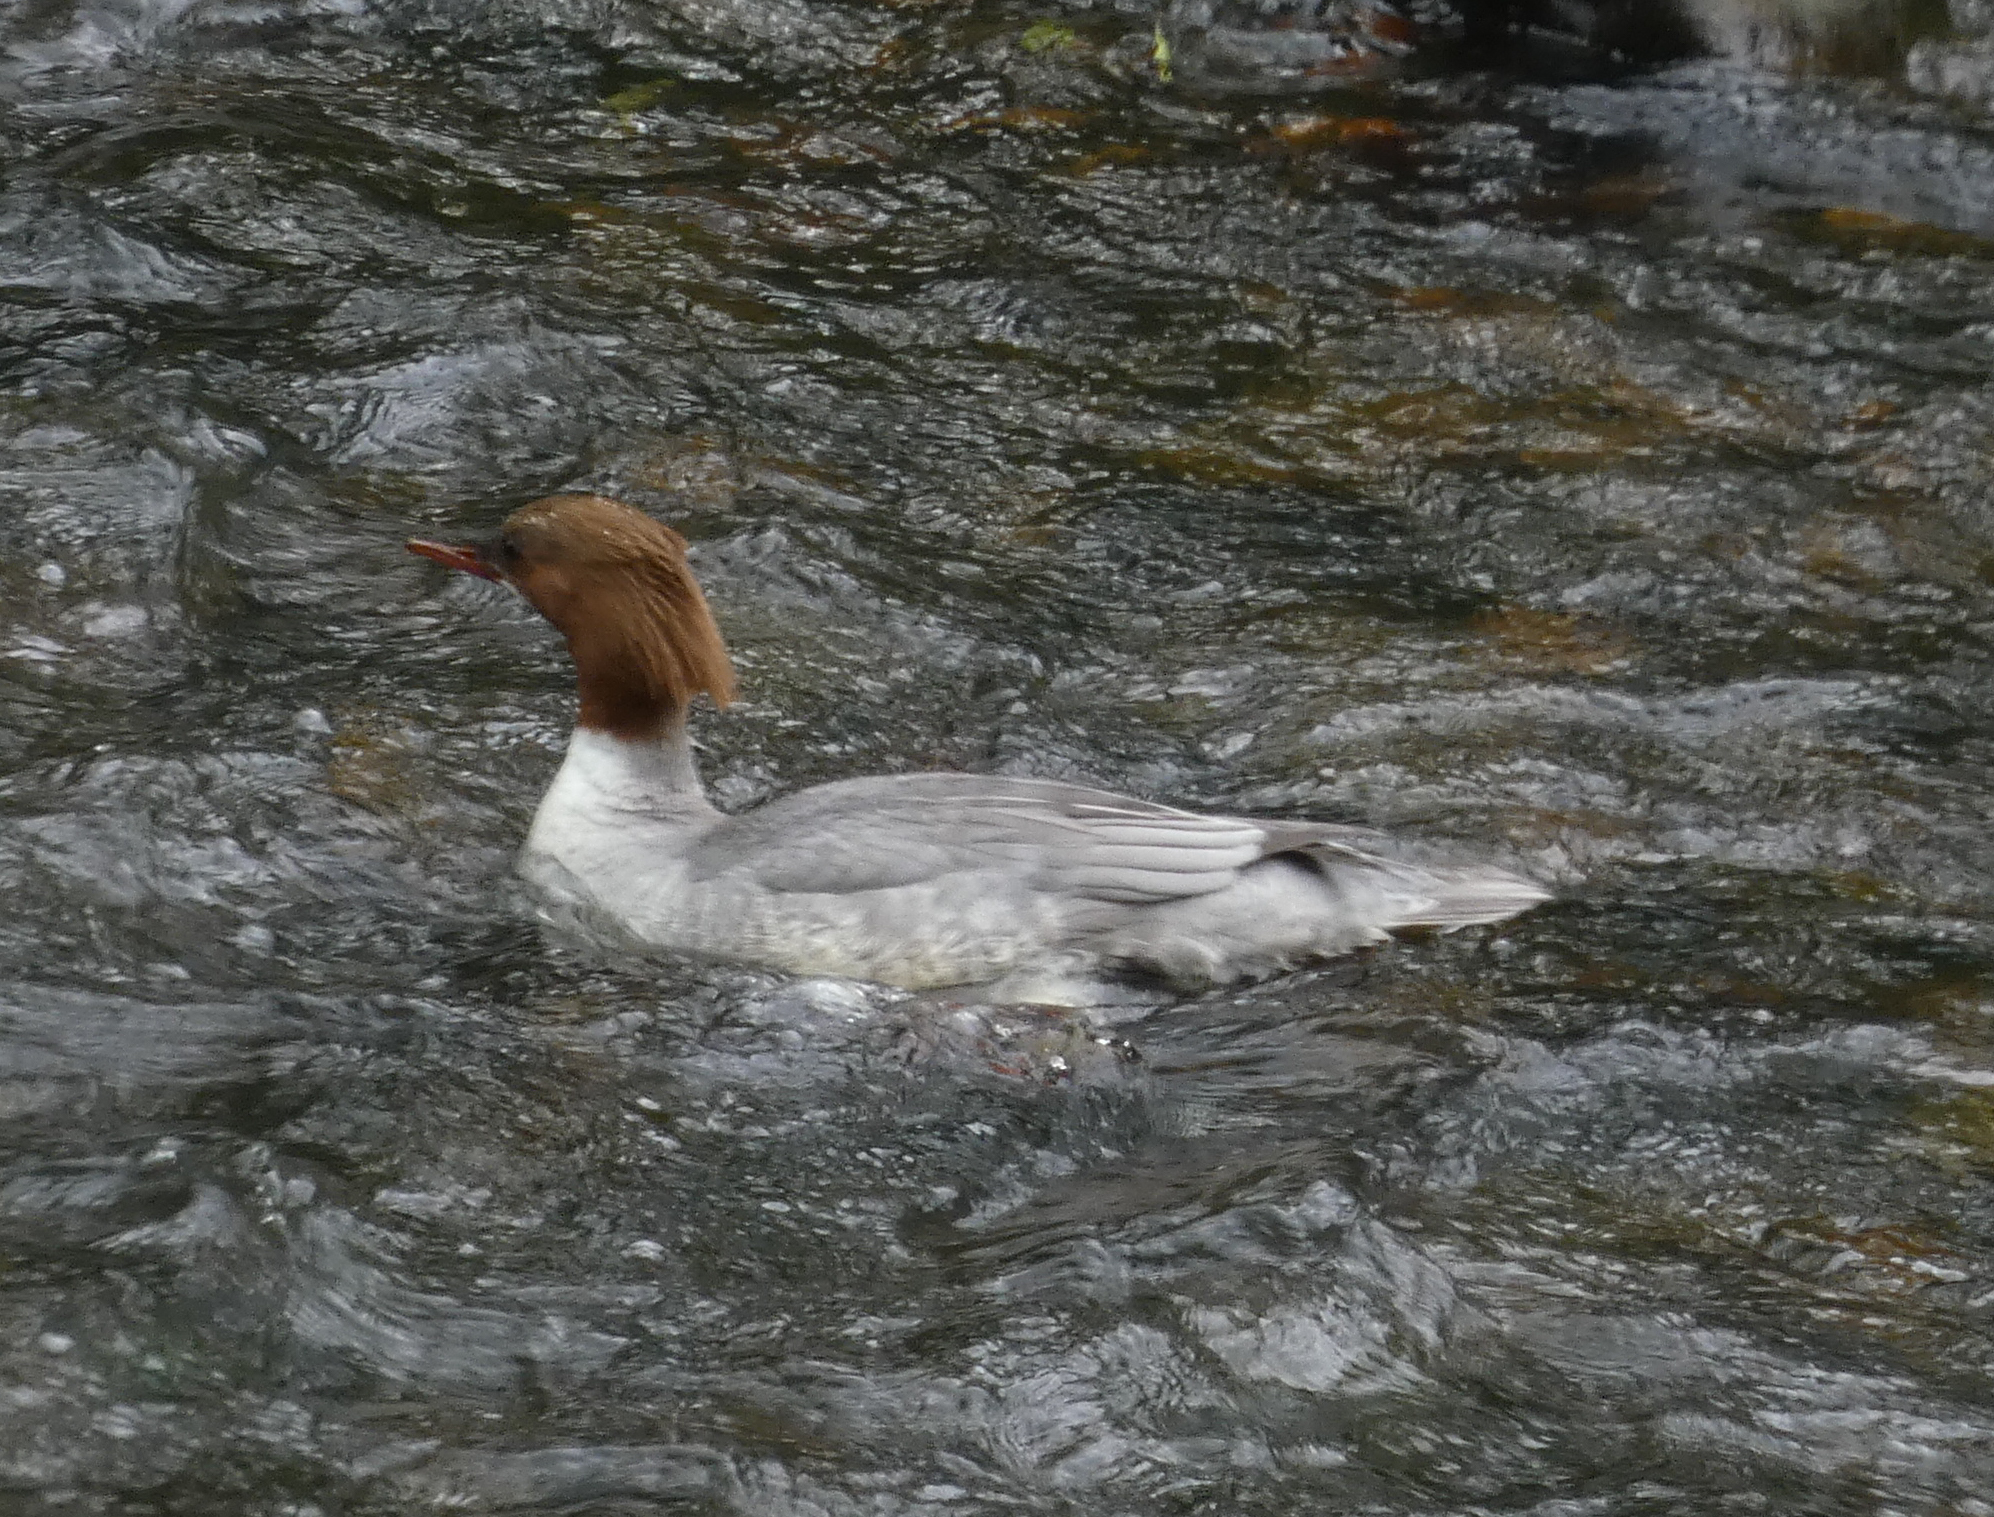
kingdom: Animalia
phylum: Chordata
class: Aves
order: Anseriformes
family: Anatidae
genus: Mergus
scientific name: Mergus merganser
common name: Common merganser
